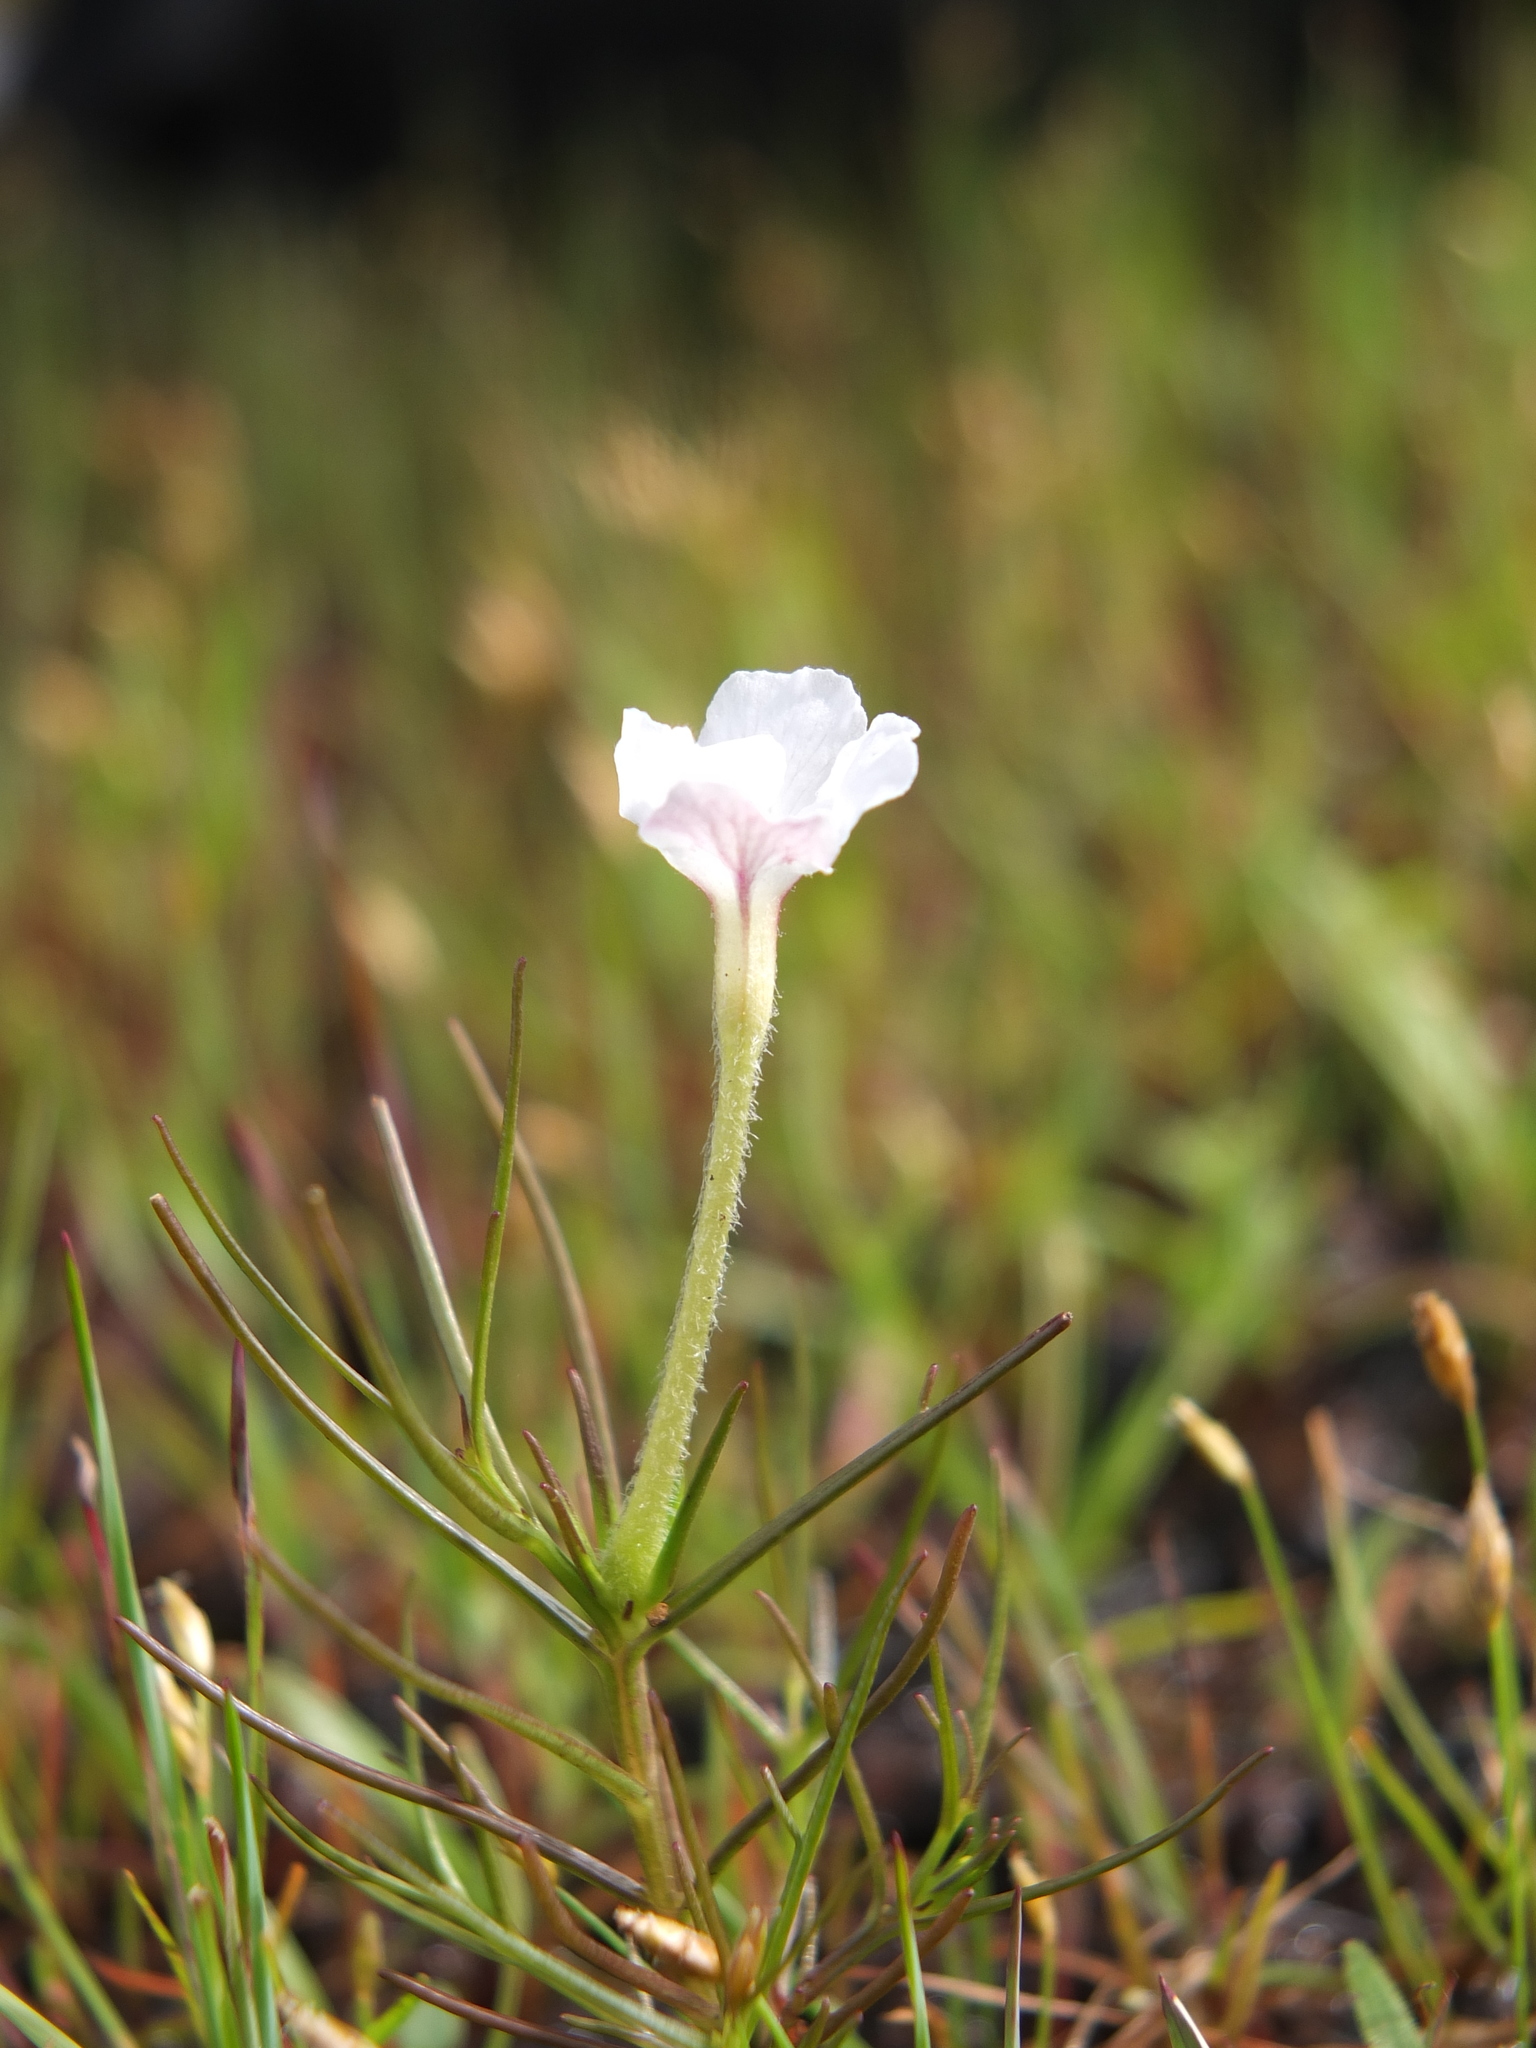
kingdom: Plantae
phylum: Tracheophyta
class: Magnoliopsida
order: Lamiales
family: Orobanchaceae
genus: Rhamphicarpa
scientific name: Rhamphicarpa fistulosa
